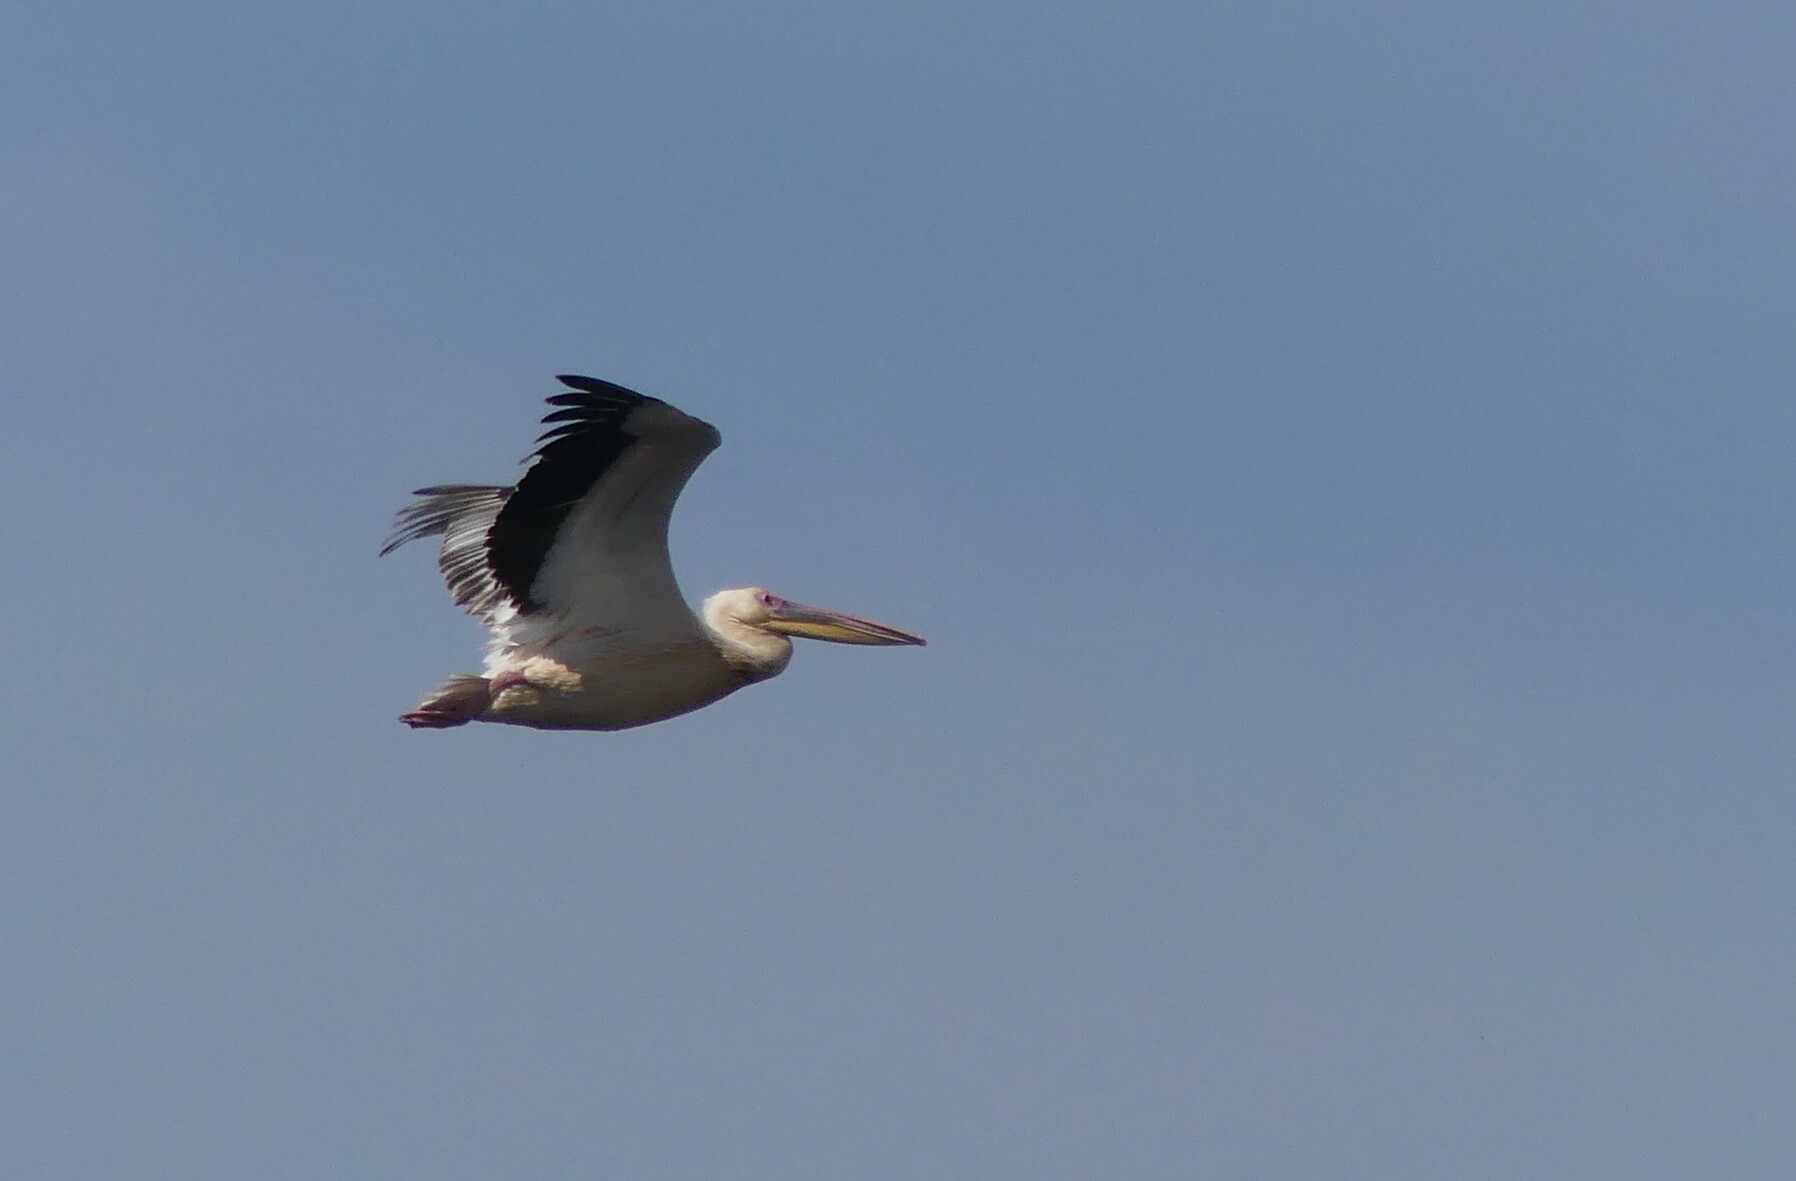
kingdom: Animalia
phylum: Chordata
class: Aves
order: Pelecaniformes
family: Pelecanidae
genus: Pelecanus
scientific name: Pelecanus onocrotalus
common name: Great white pelican
